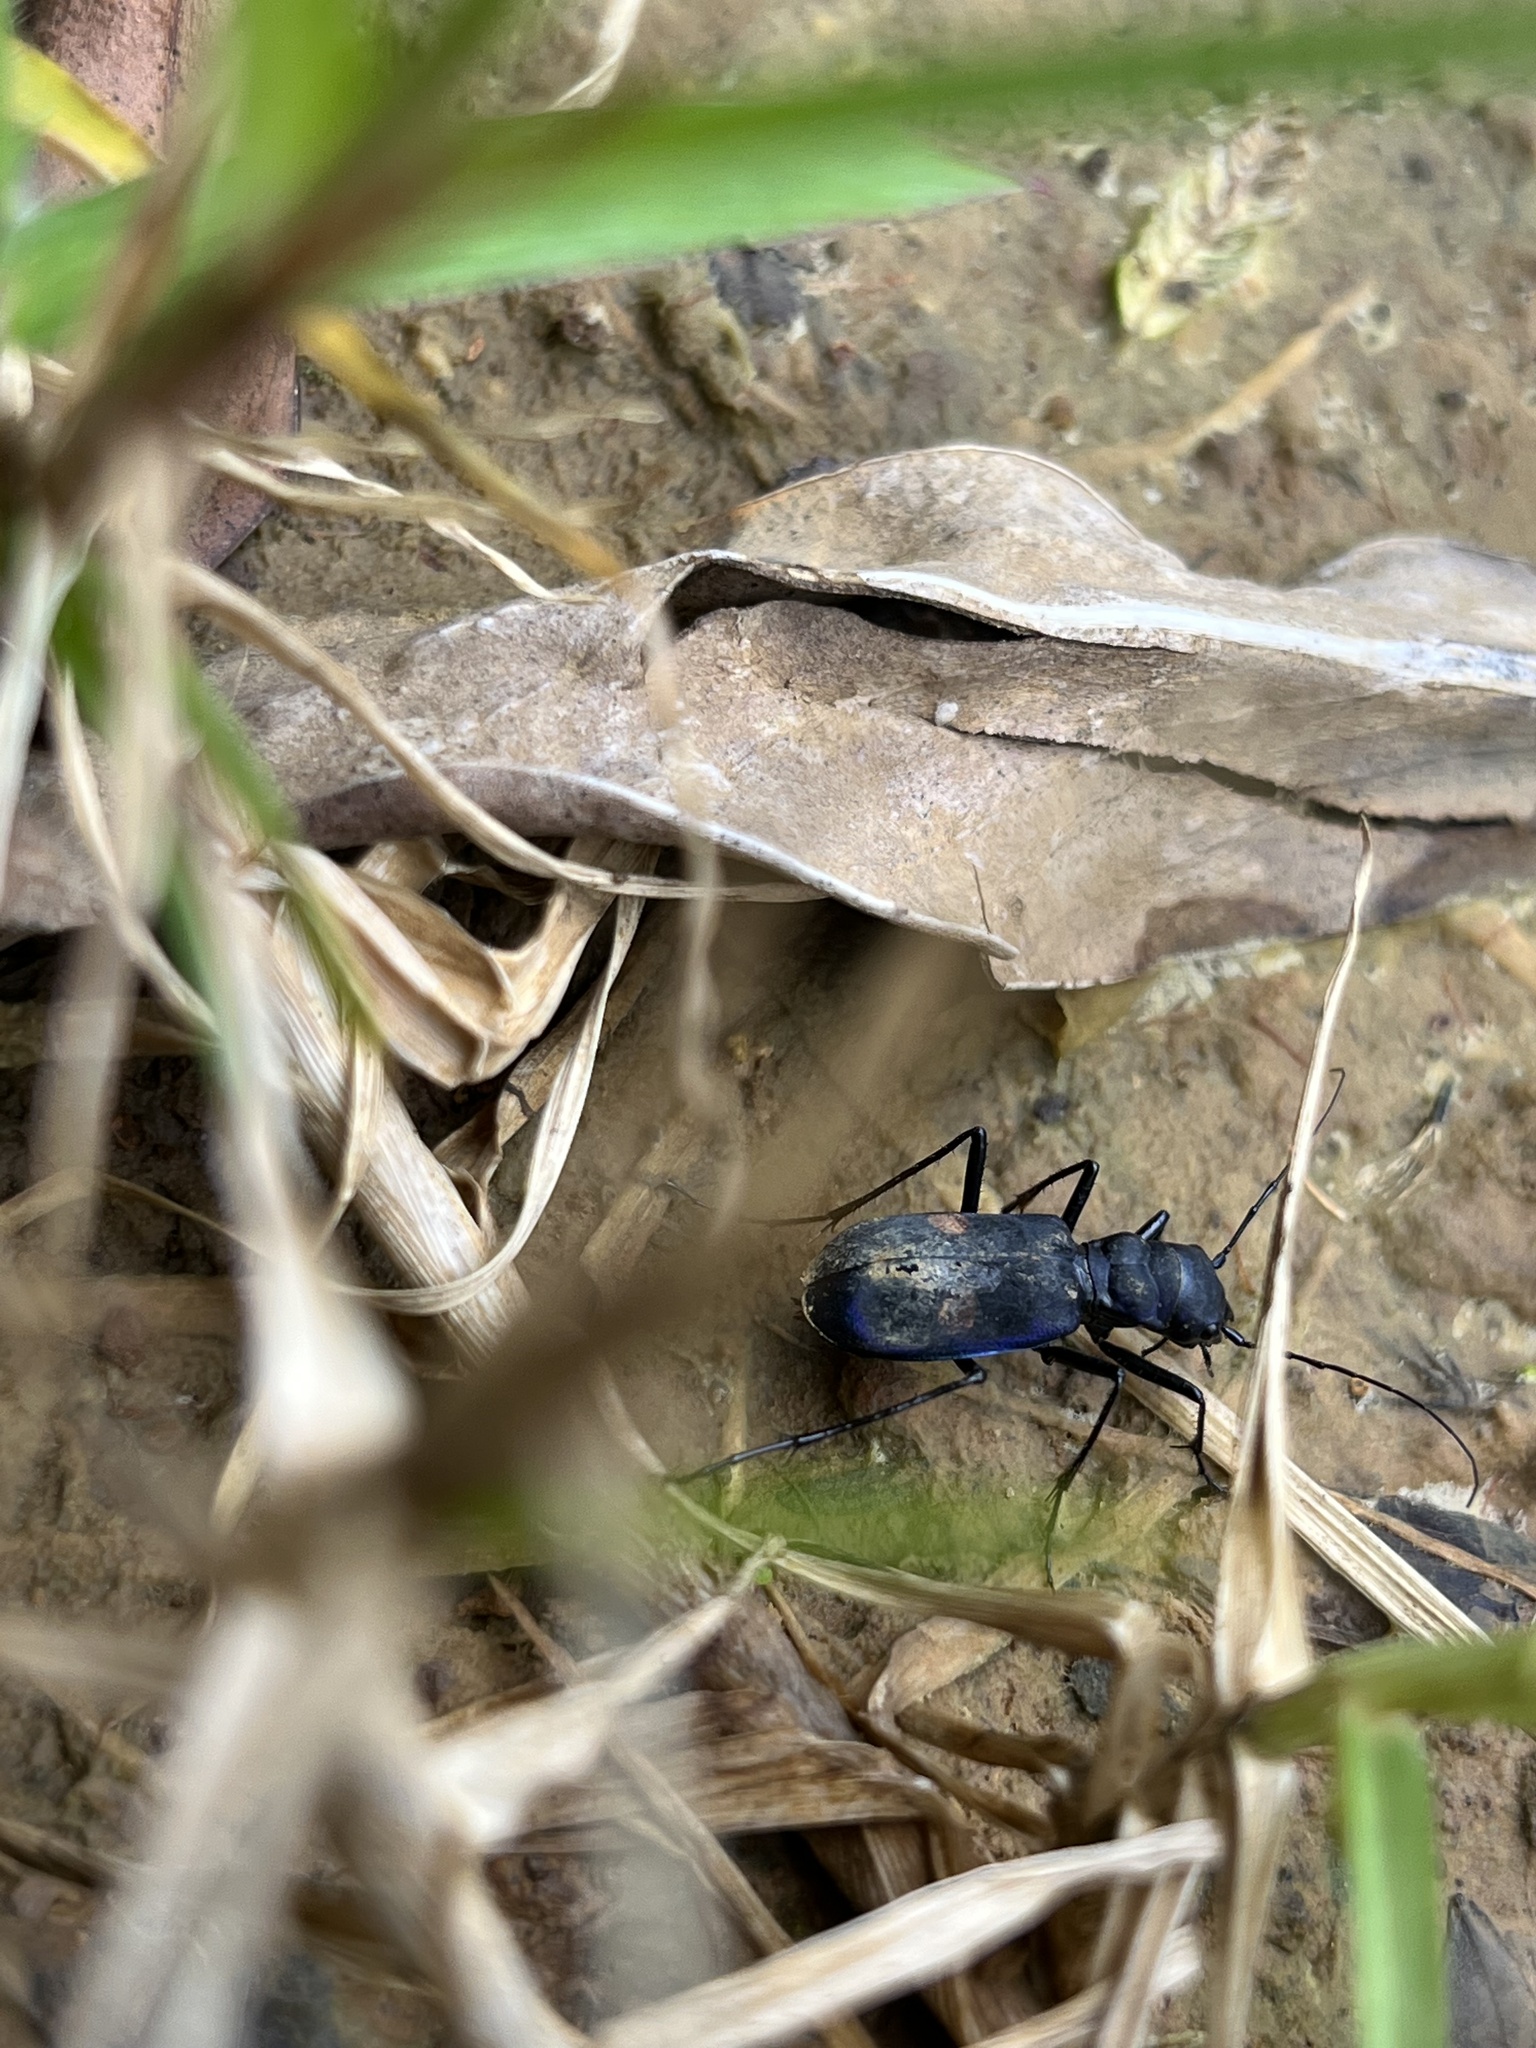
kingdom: Animalia
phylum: Arthropoda
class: Insecta
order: Coleoptera
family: Carabidae
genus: Pseudoxycheila
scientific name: Pseudoxycheila tarsalis
